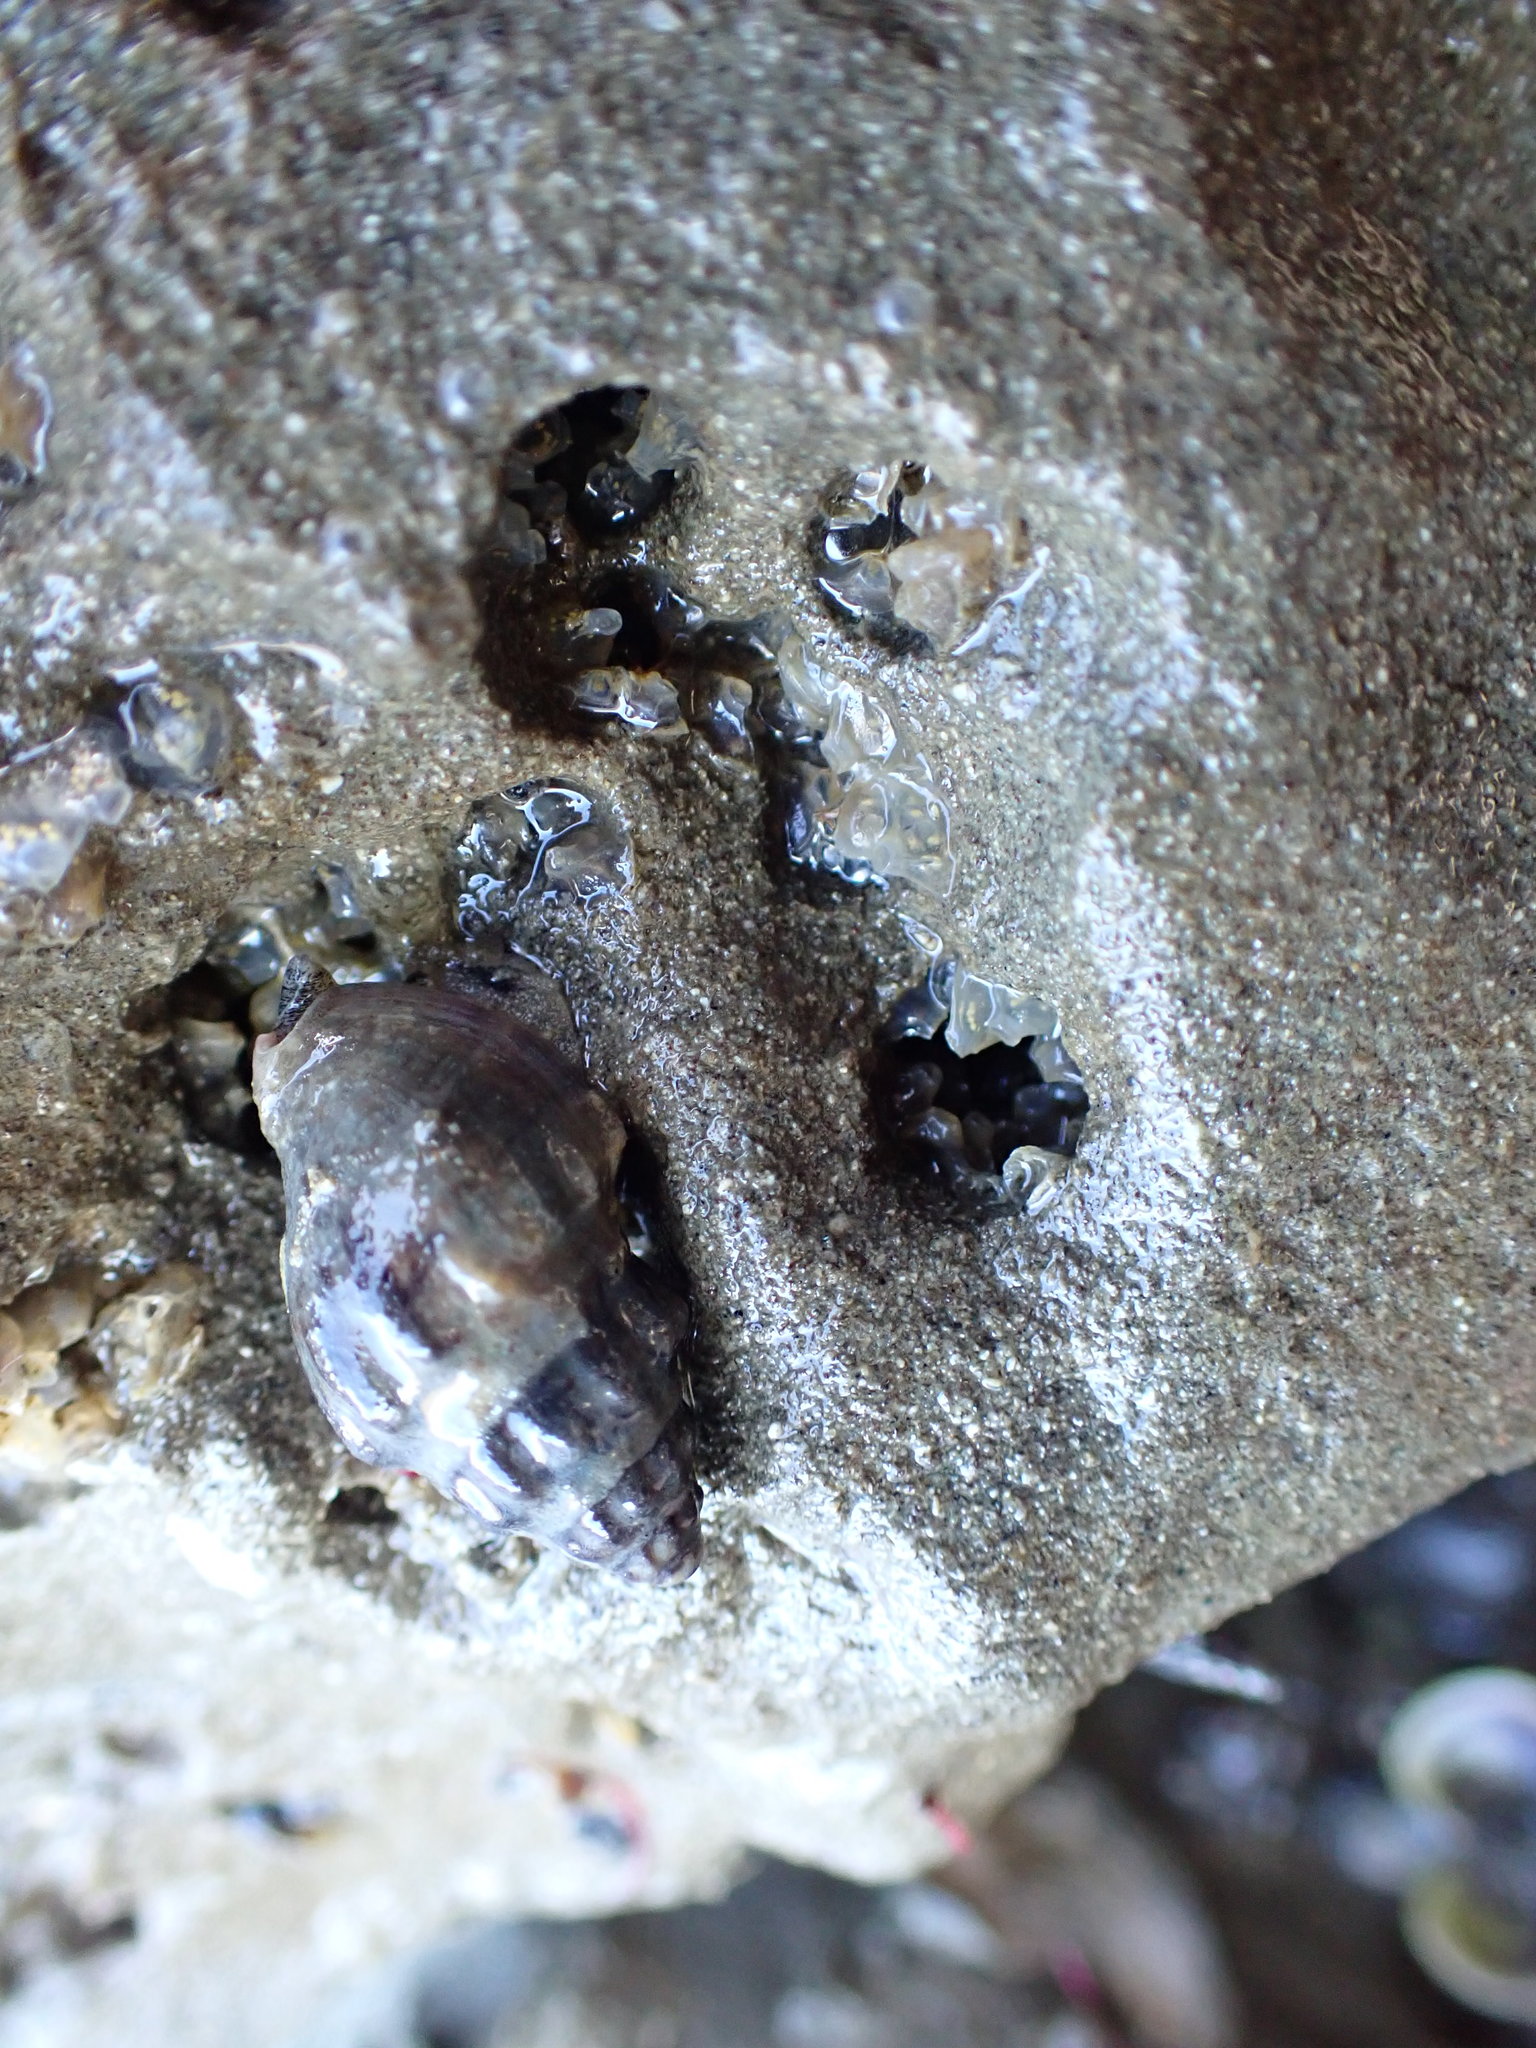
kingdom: Animalia
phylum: Mollusca
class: Gastropoda
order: Neogastropoda
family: Cominellidae
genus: Cominella
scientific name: Cominella glandiformis
